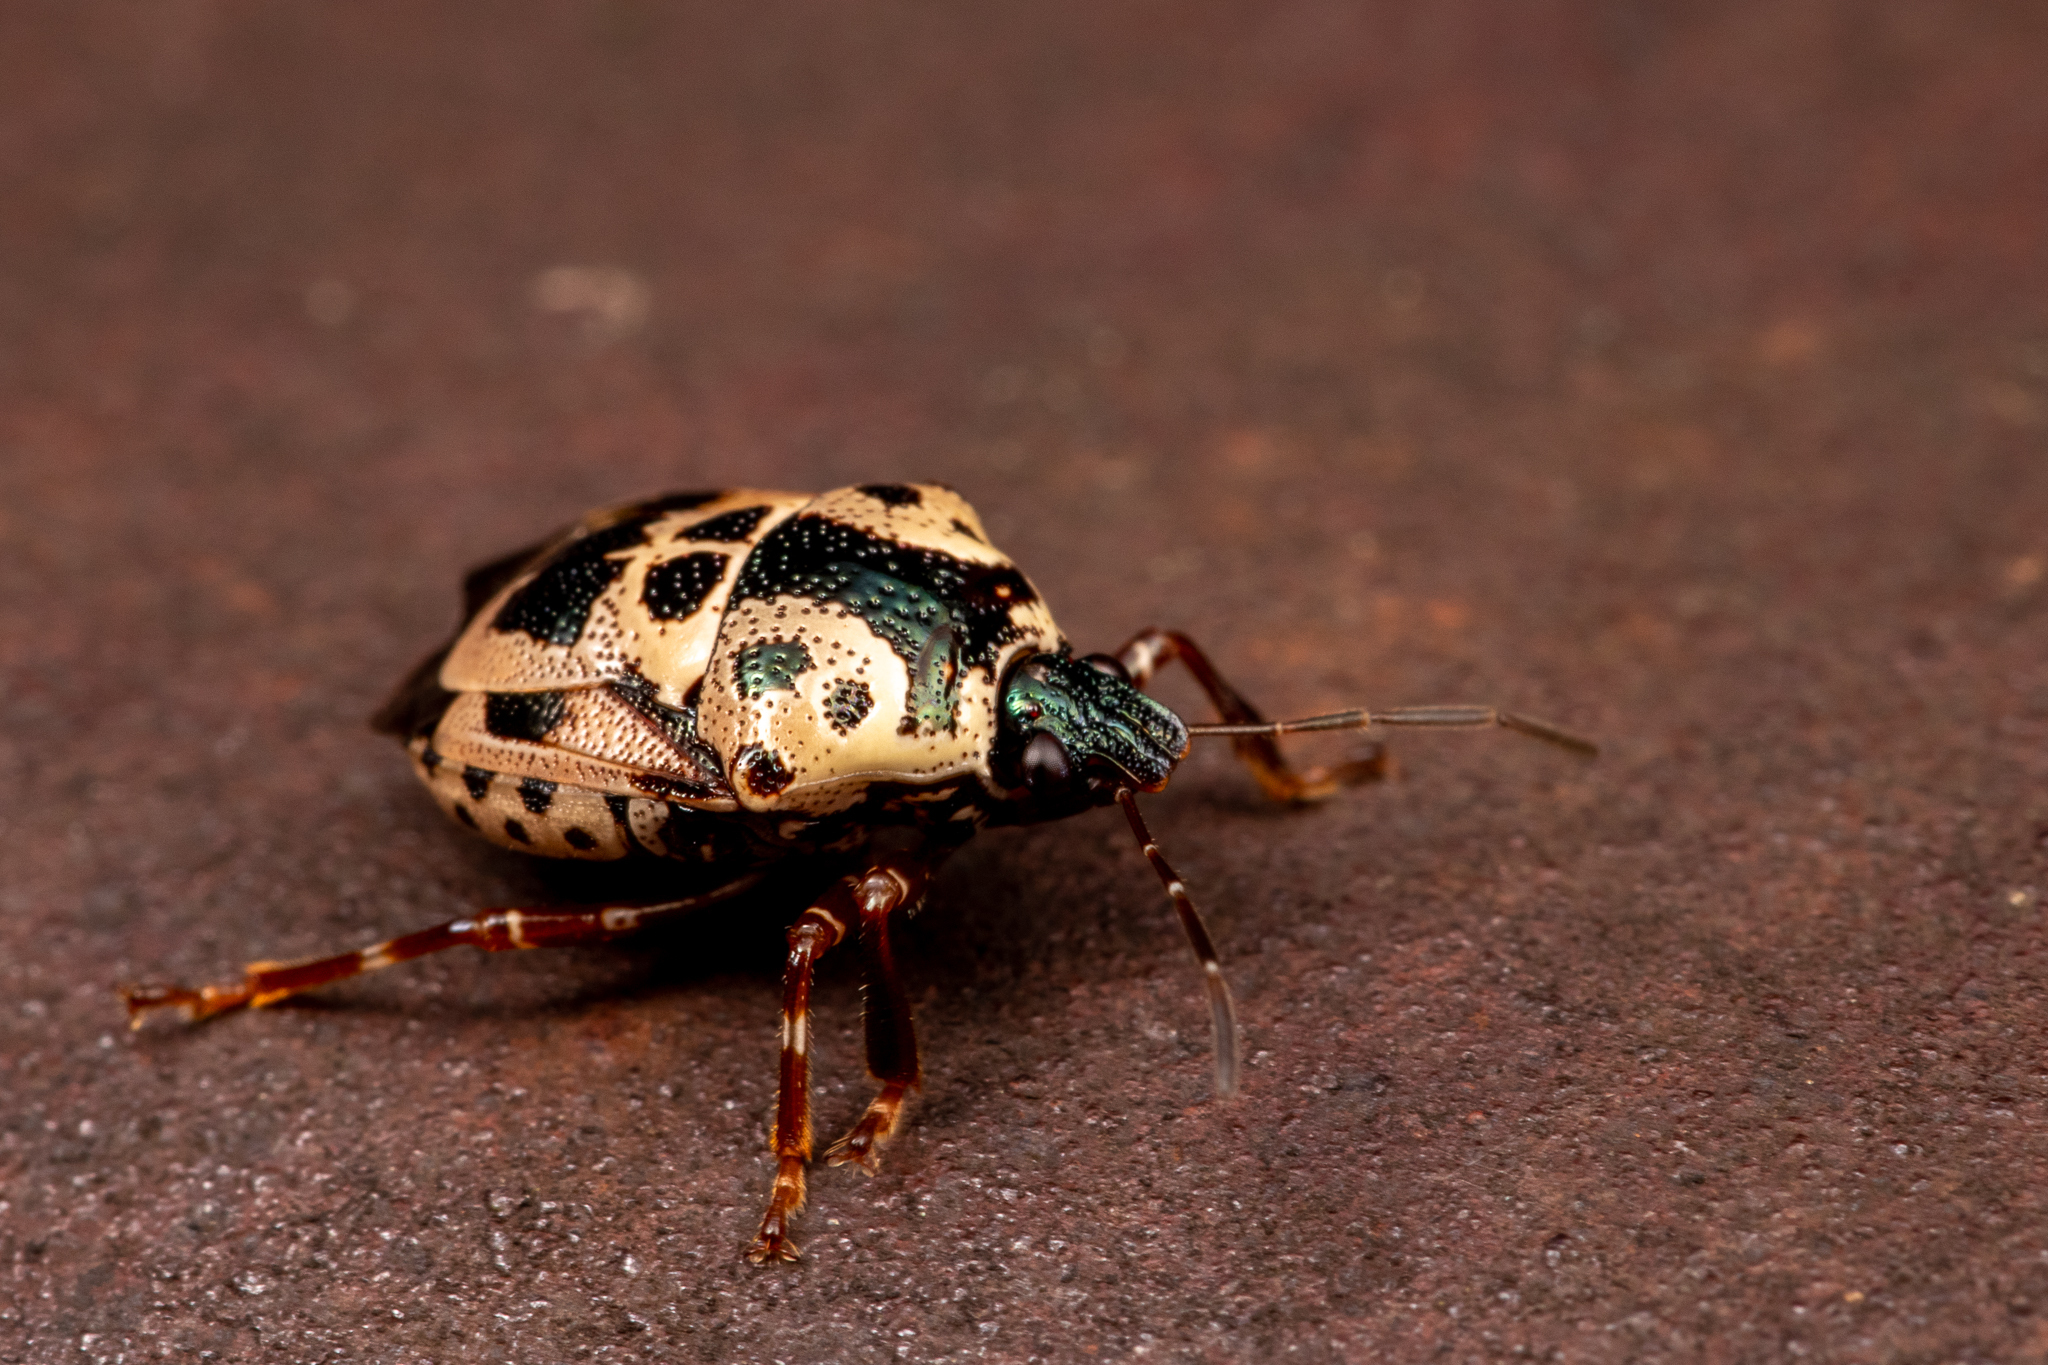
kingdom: Animalia
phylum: Arthropoda
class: Insecta
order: Hemiptera
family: Pentatomidae
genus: Stiretrus
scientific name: Stiretrus anchorago
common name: Anchor stink bug
